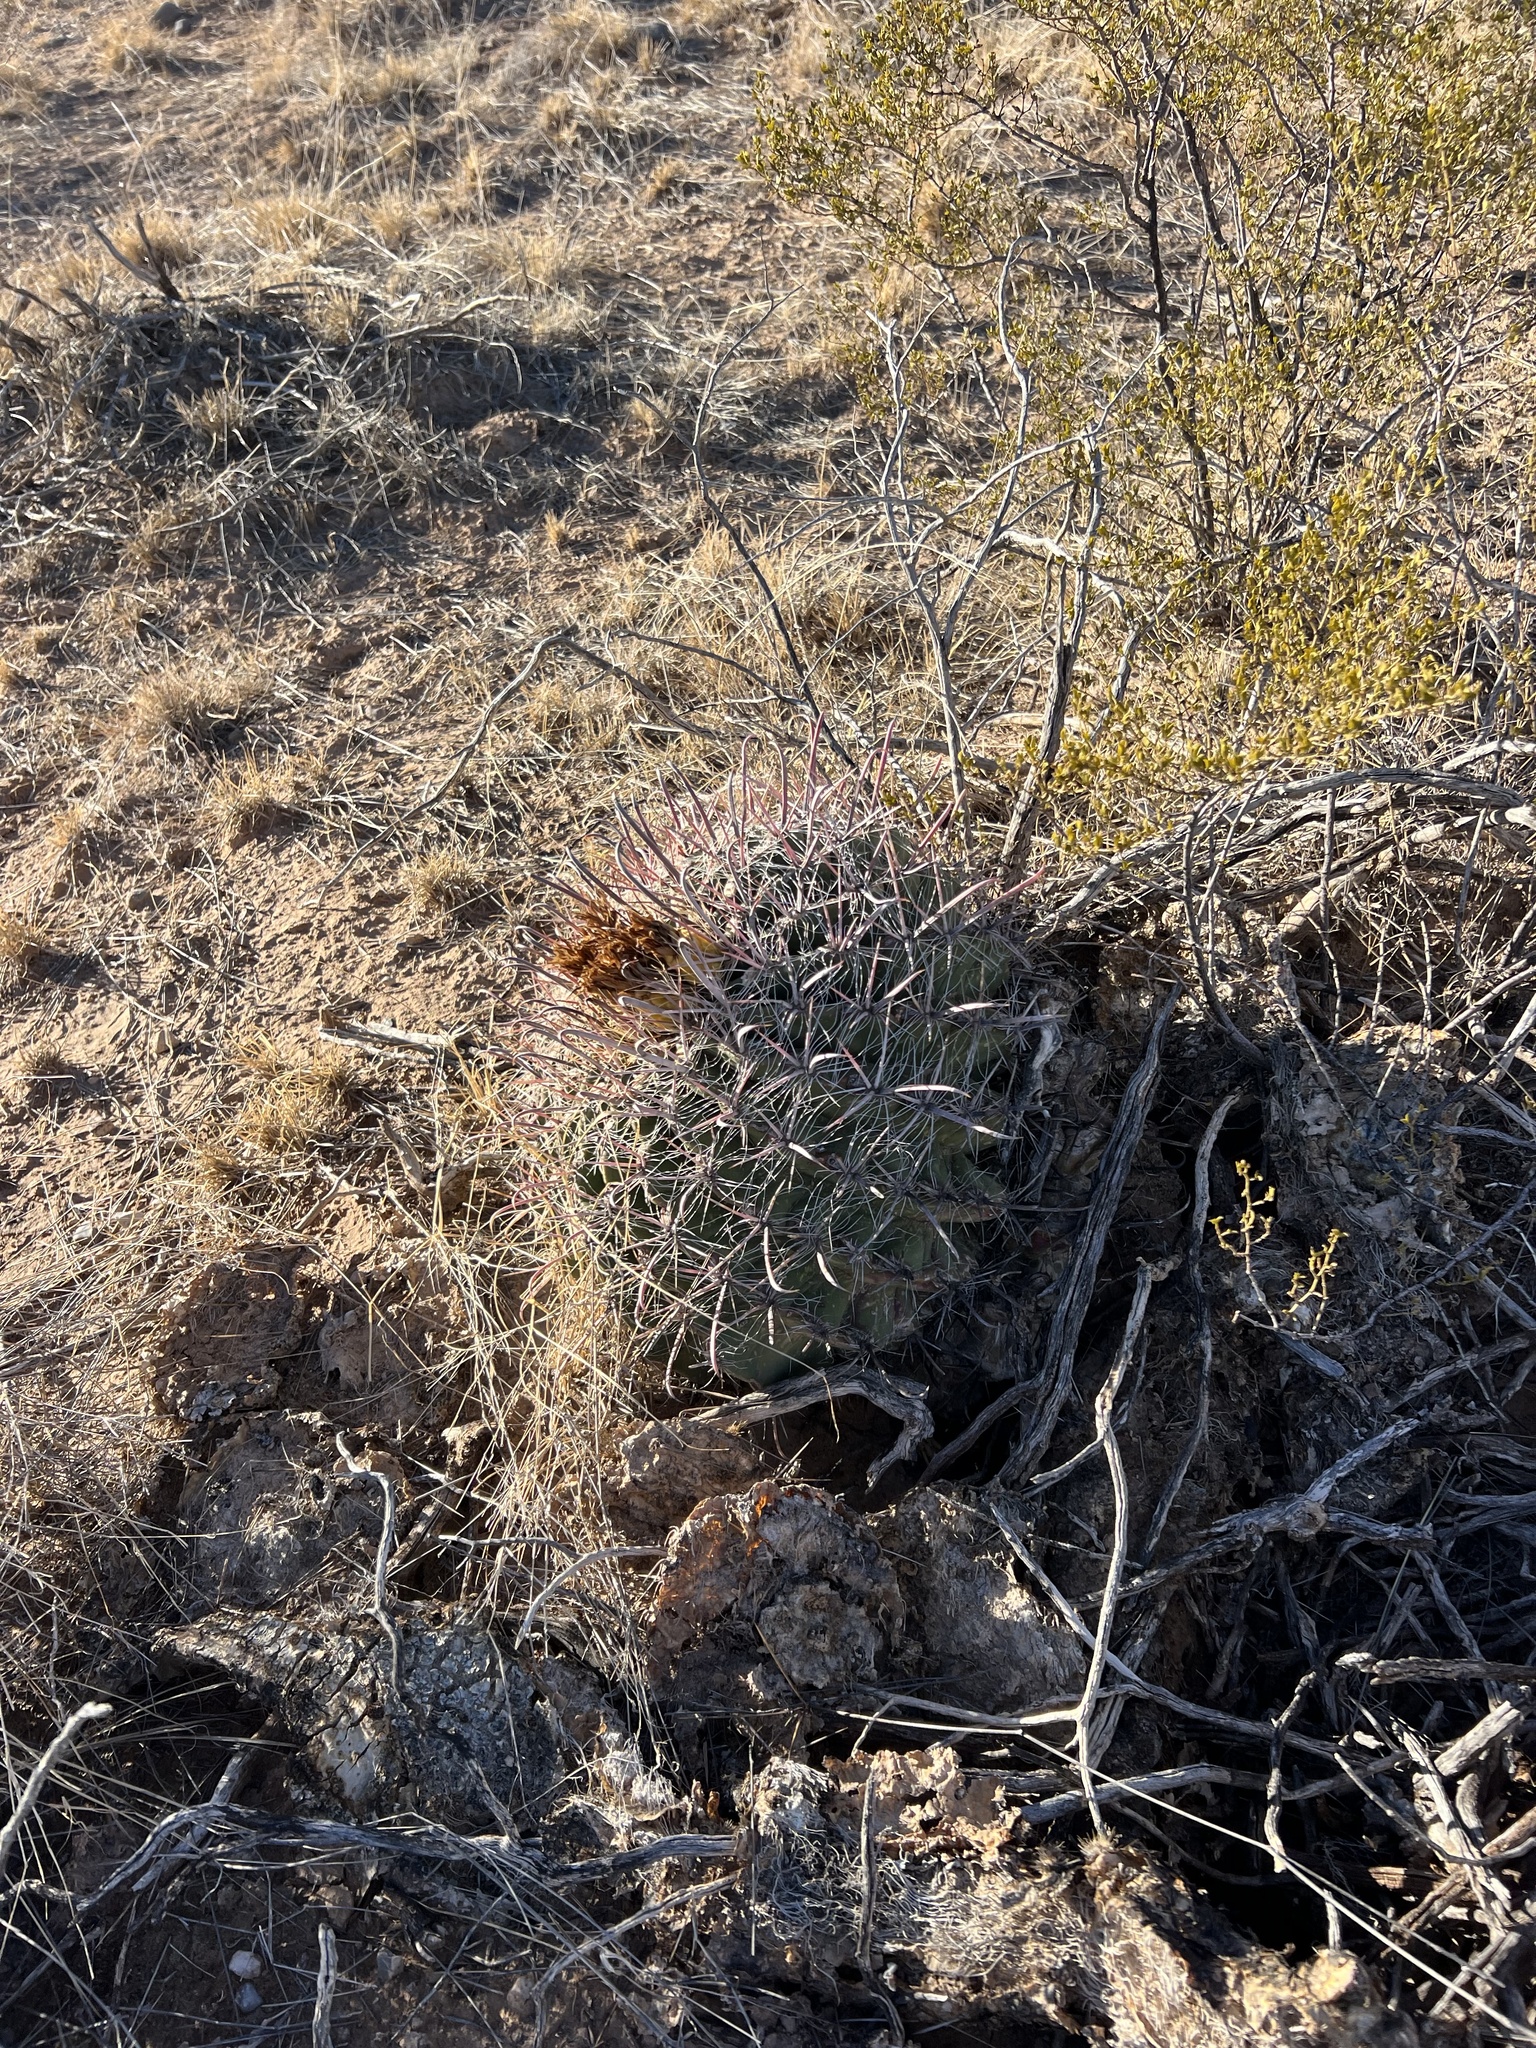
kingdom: Plantae
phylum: Tracheophyta
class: Magnoliopsida
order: Caryophyllales
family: Cactaceae
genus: Ferocactus
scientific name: Ferocactus wislizeni
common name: Candy barrel cactus
